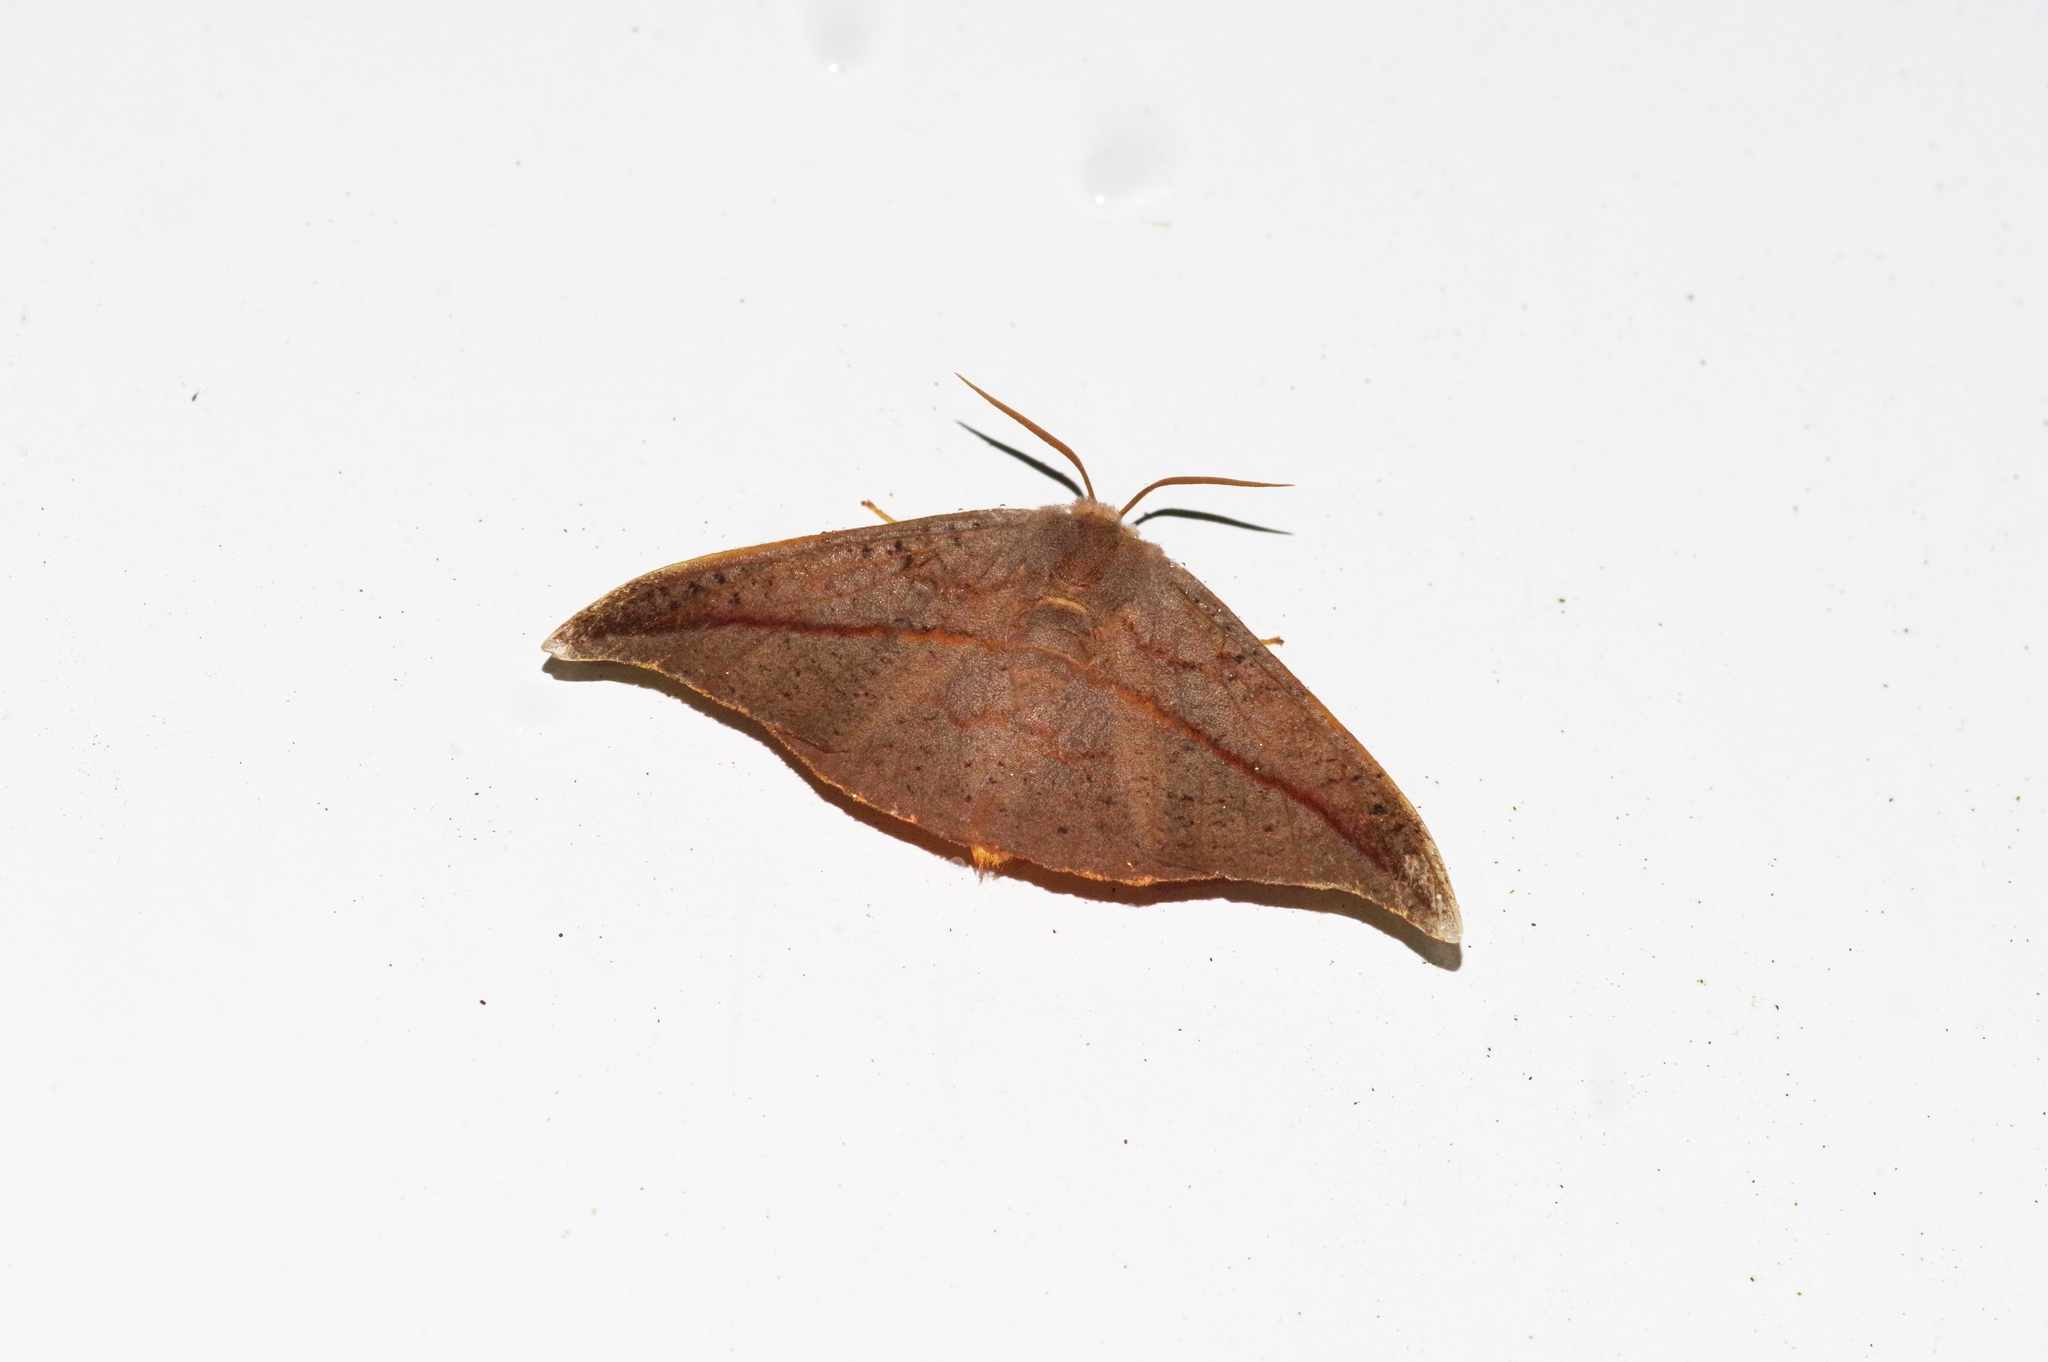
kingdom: Animalia
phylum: Arthropoda
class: Insecta
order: Lepidoptera
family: Drepanidae
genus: Oreta
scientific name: Oreta insignis
